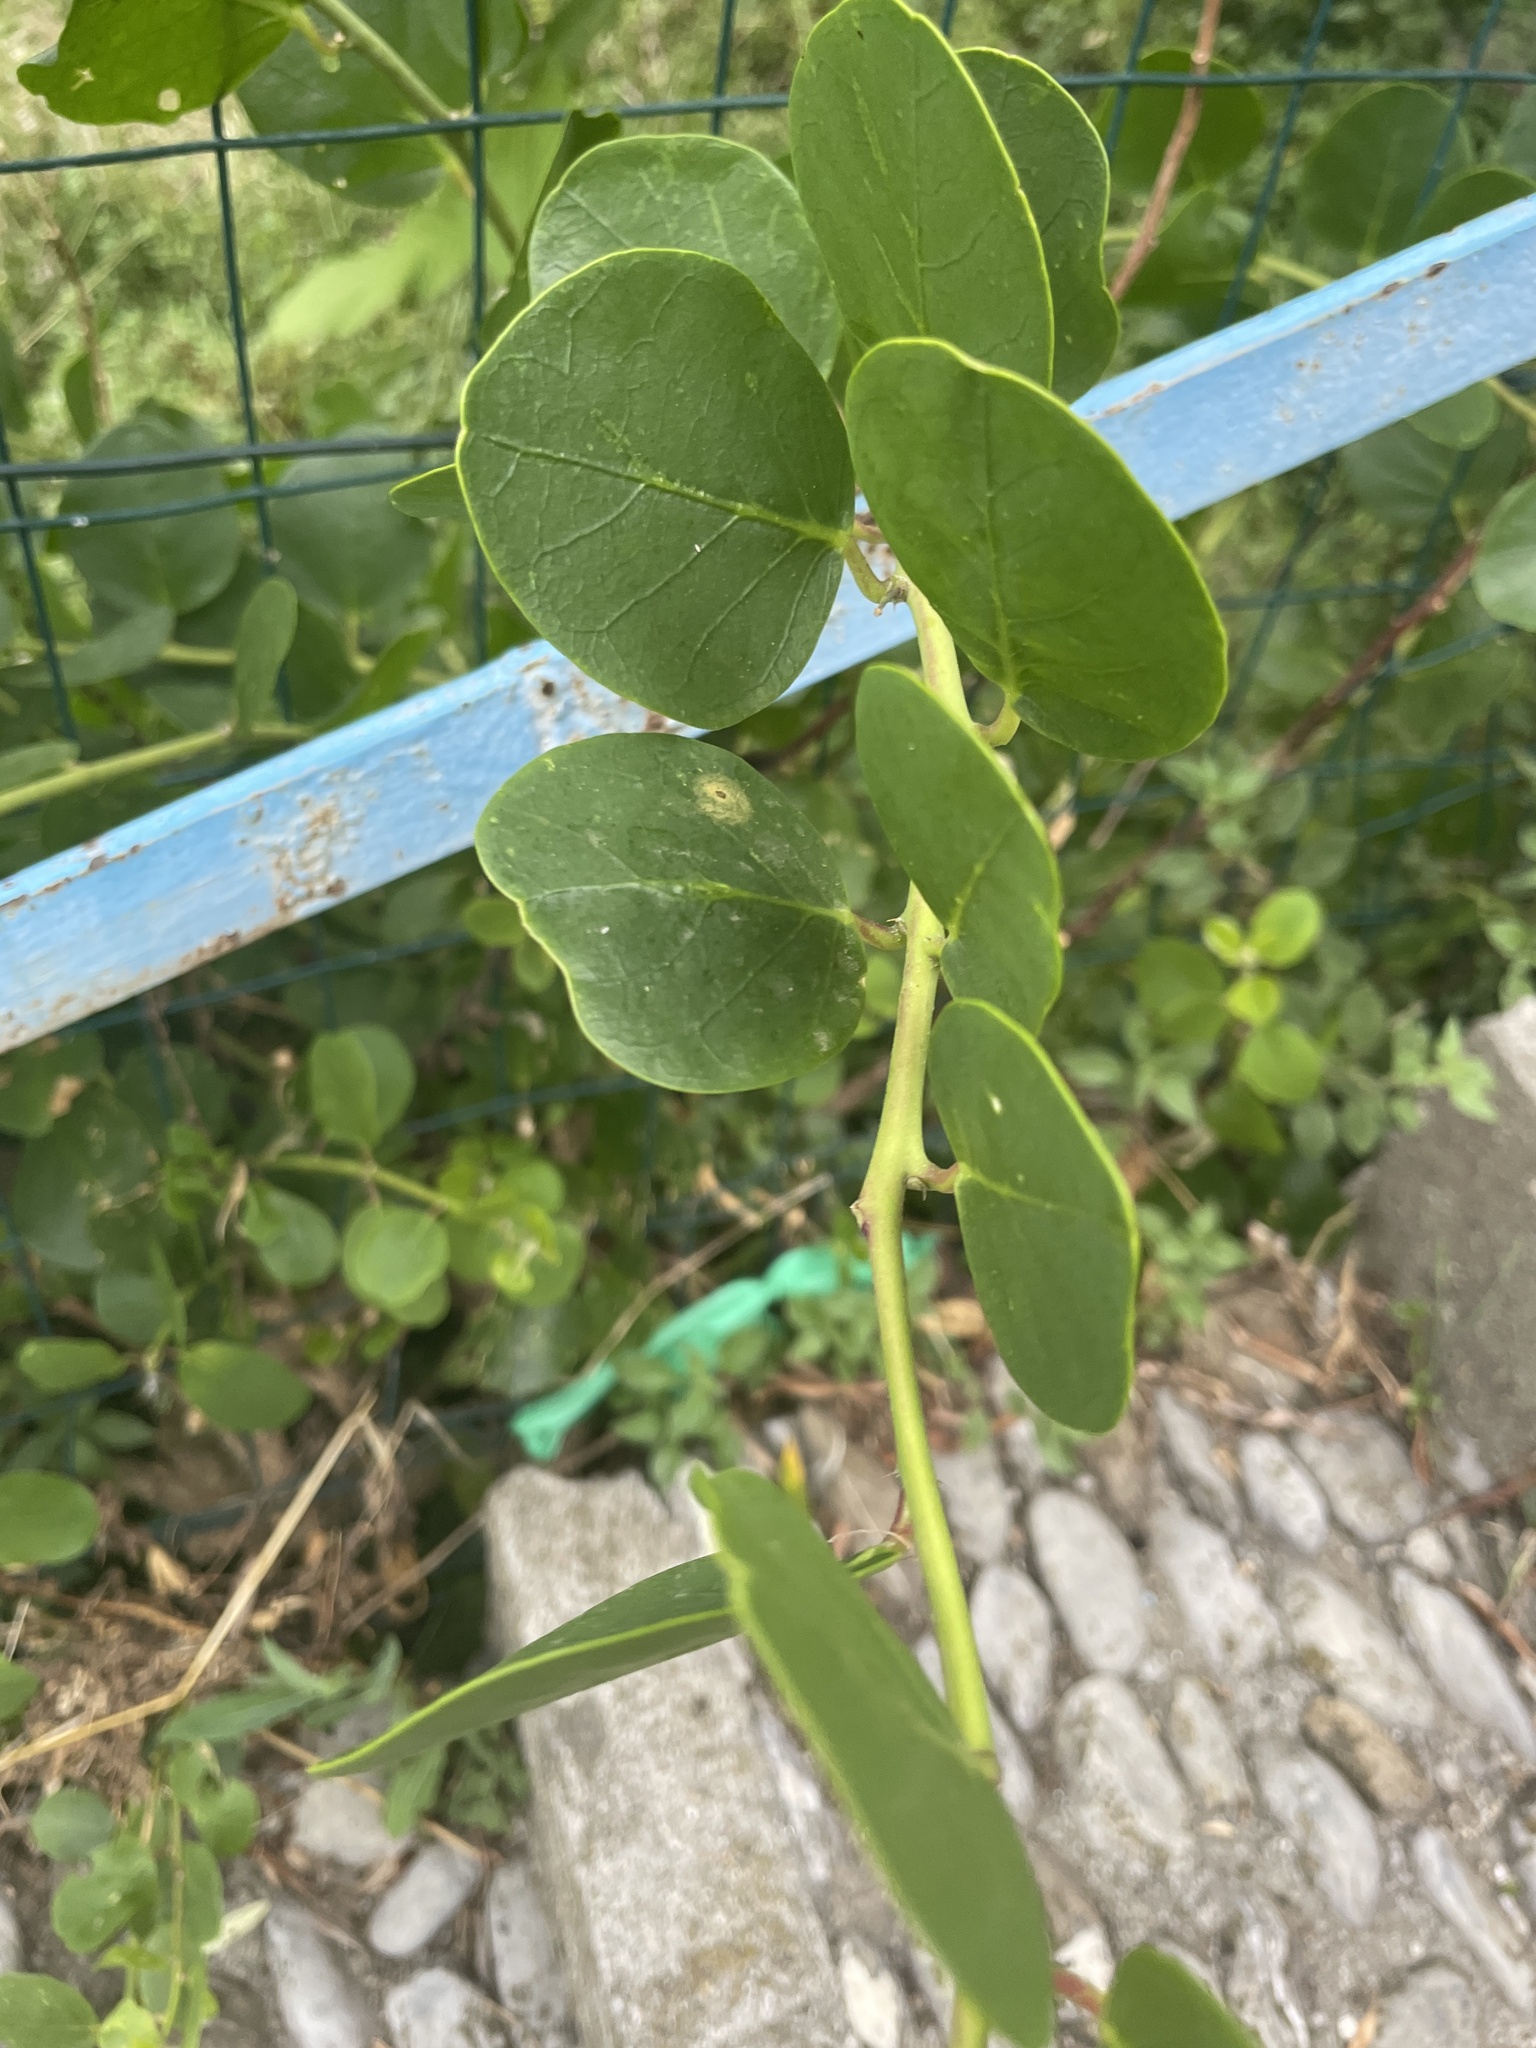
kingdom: Plantae
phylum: Tracheophyta
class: Magnoliopsida
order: Brassicales
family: Capparaceae
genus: Capparis
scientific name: Capparis orientalis
